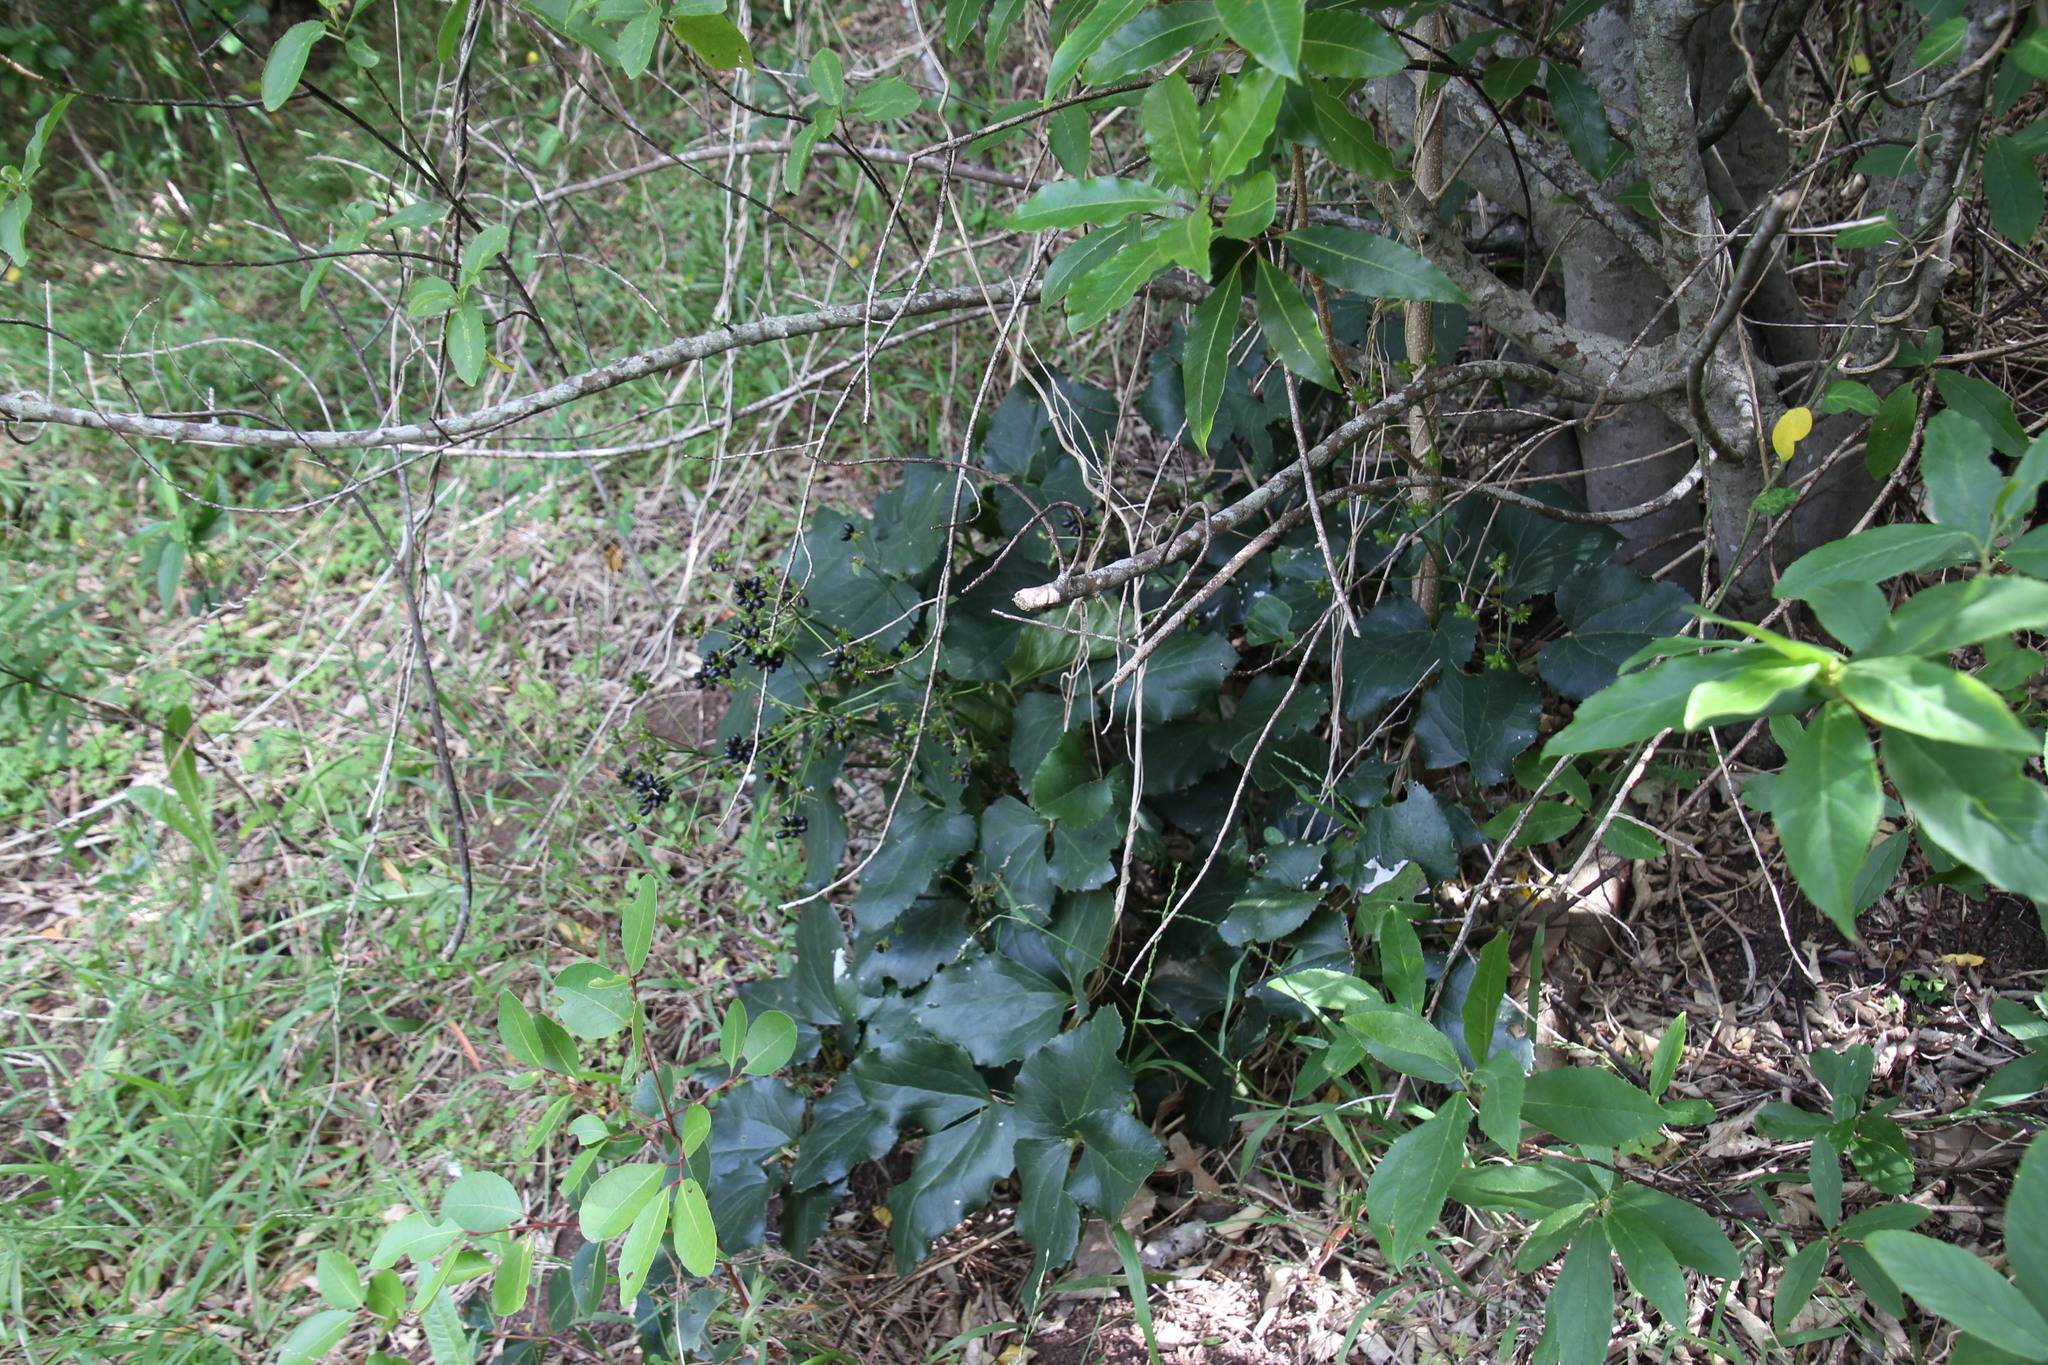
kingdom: Plantae
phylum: Tracheophyta
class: Magnoliopsida
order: Ranunculales
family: Ranunculaceae
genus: Knowltonia
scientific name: Knowltonia vesicatoria
